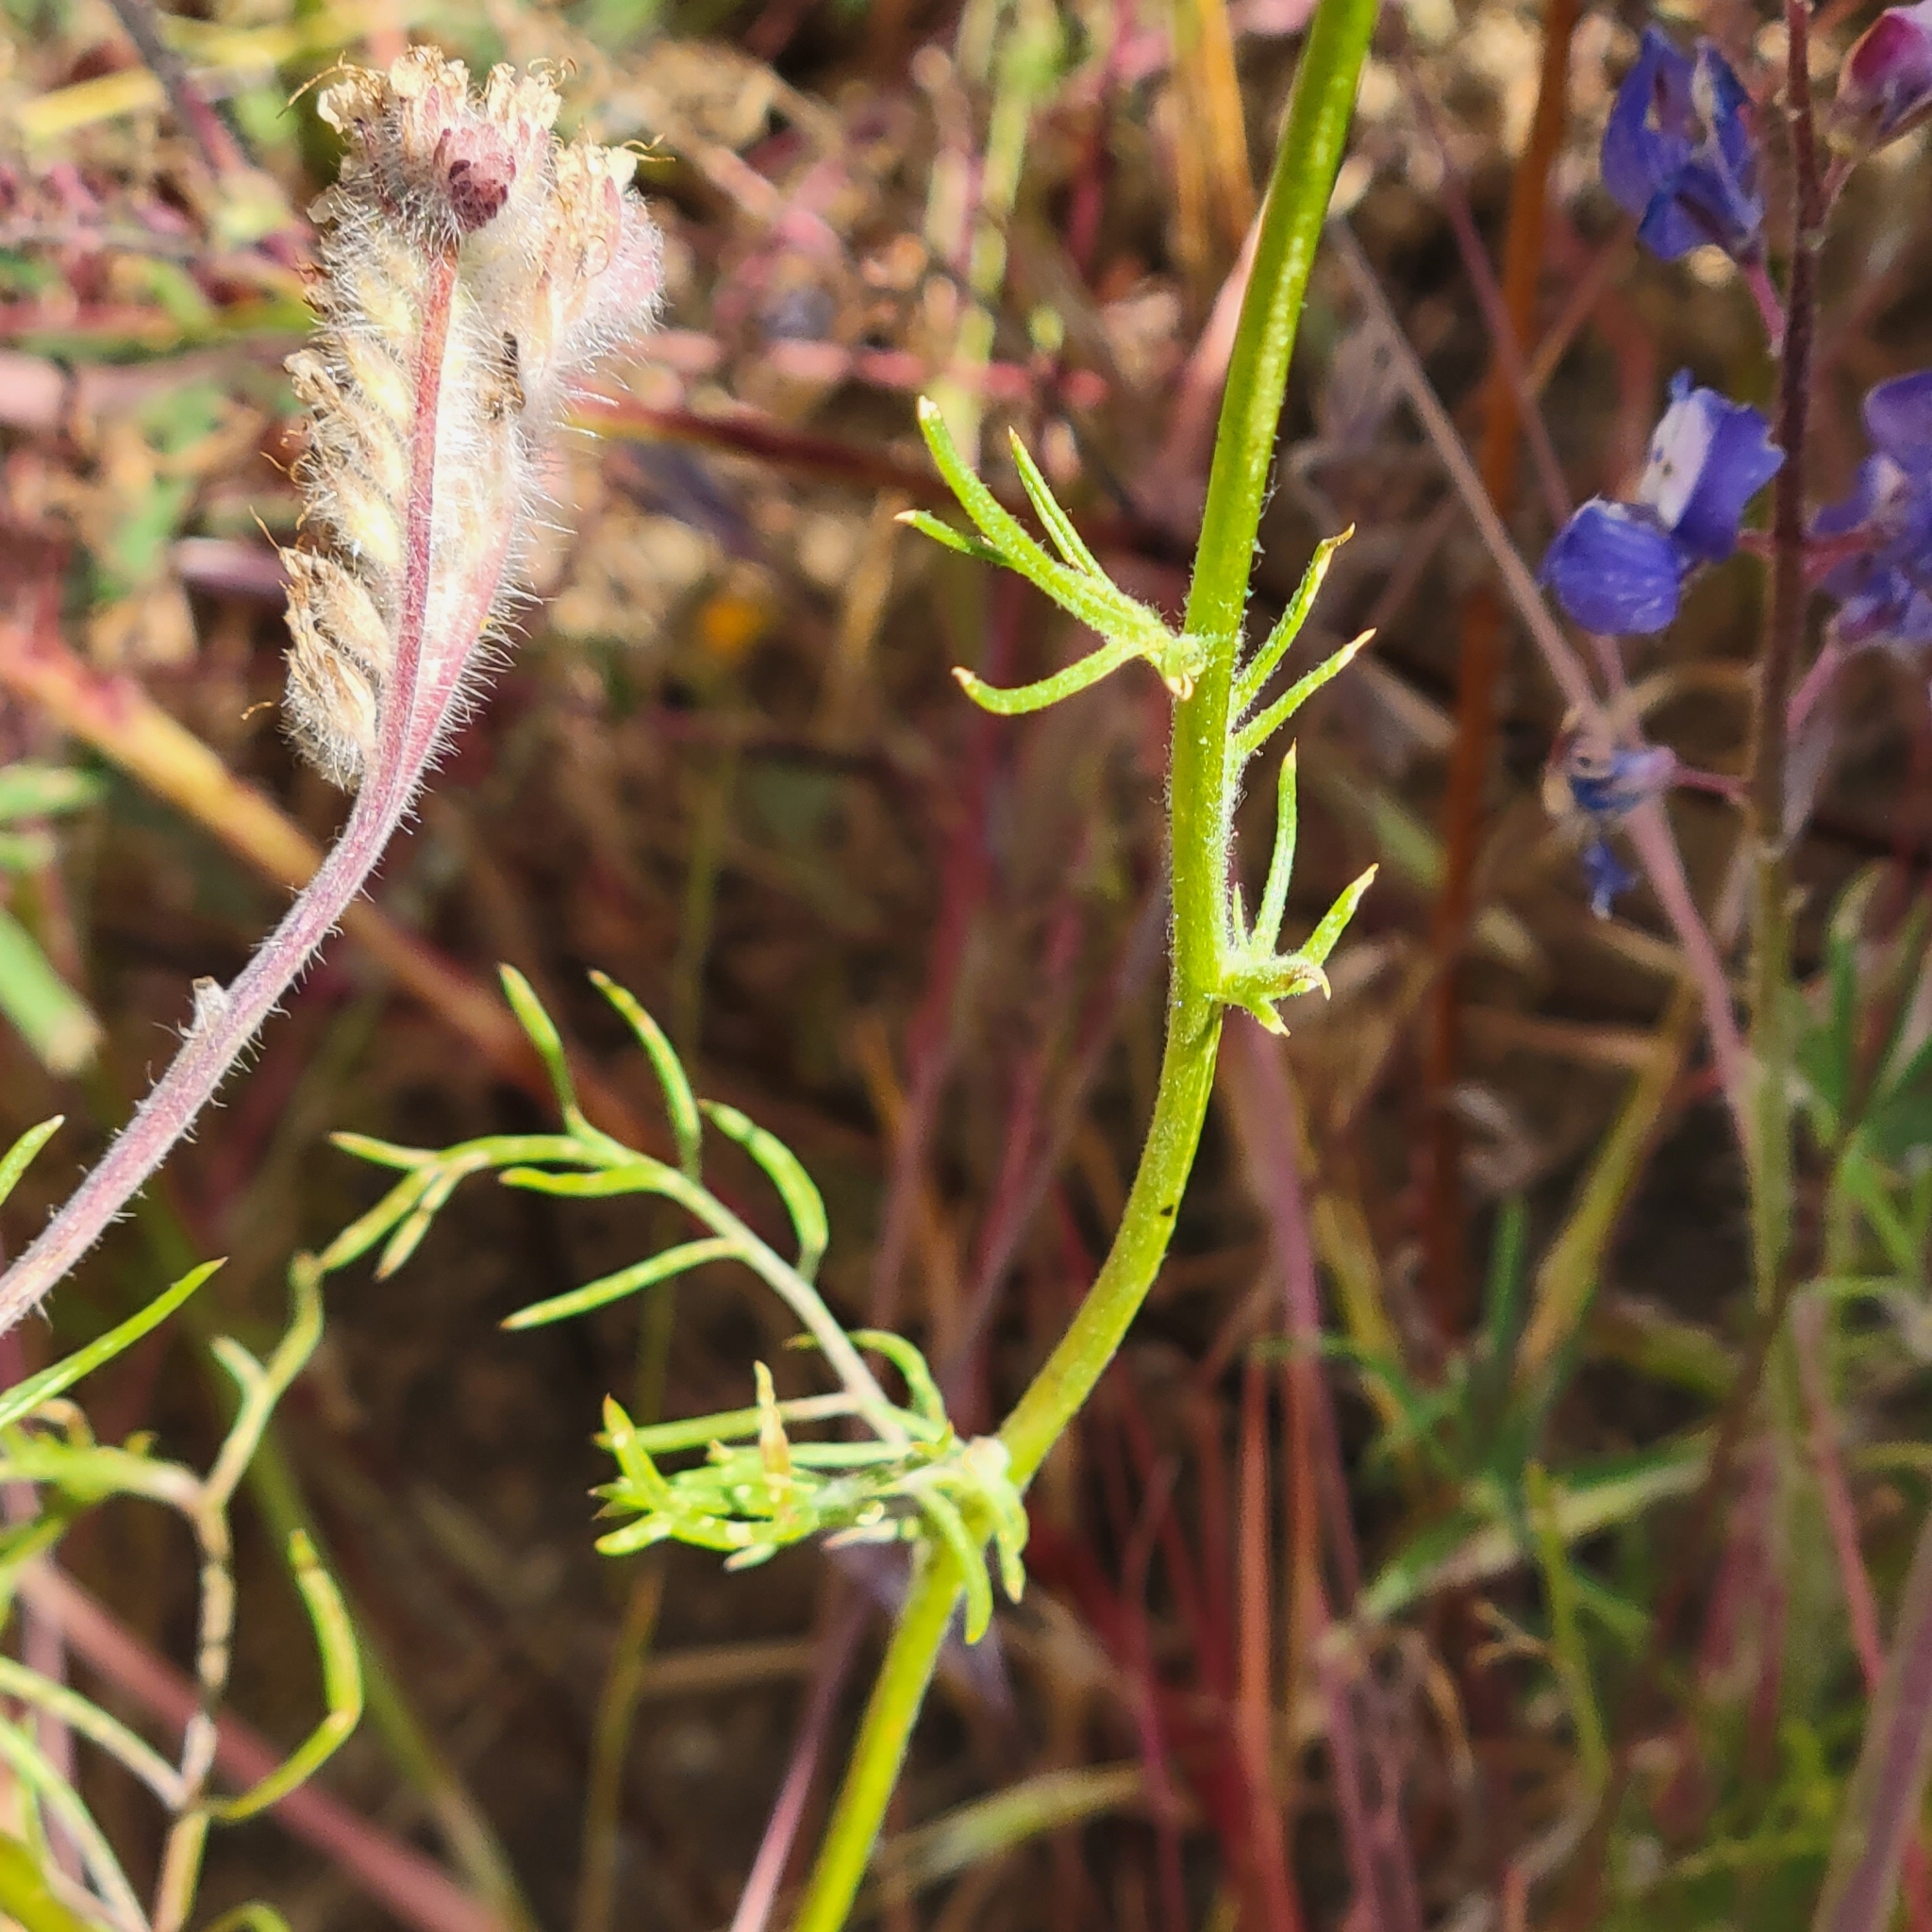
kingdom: Plantae
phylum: Tracheophyta
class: Magnoliopsida
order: Ericales
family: Polemoniaceae
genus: Gilia
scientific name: Gilia capitata
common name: Bluehead gilia
